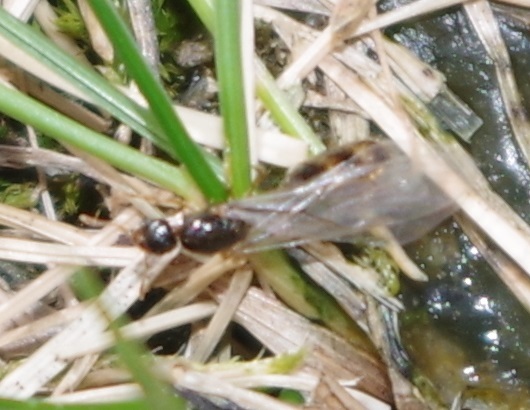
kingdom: Animalia
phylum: Arthropoda
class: Insecta
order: Hymenoptera
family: Formicidae
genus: Solenopsis
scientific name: Solenopsis fugax
